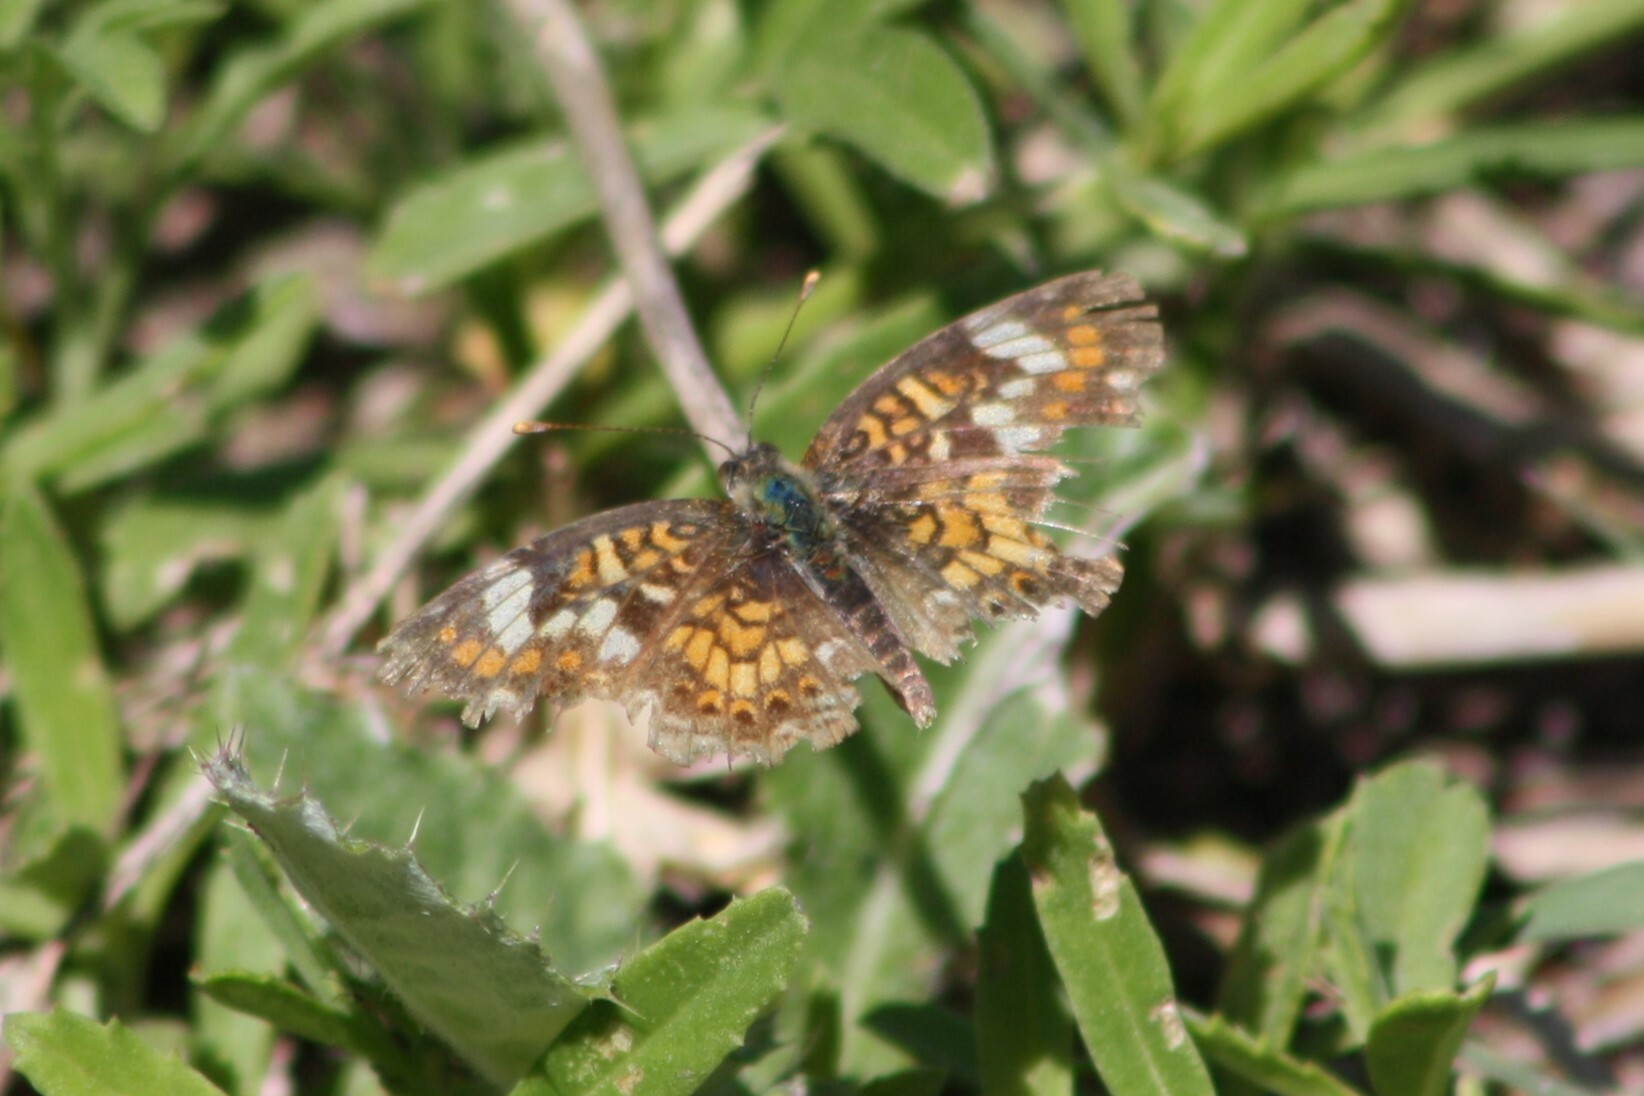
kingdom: Animalia
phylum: Arthropoda
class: Insecta
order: Lepidoptera
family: Nymphalidae
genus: Phyciodes
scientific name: Phyciodes phaon
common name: Phaon crescent
